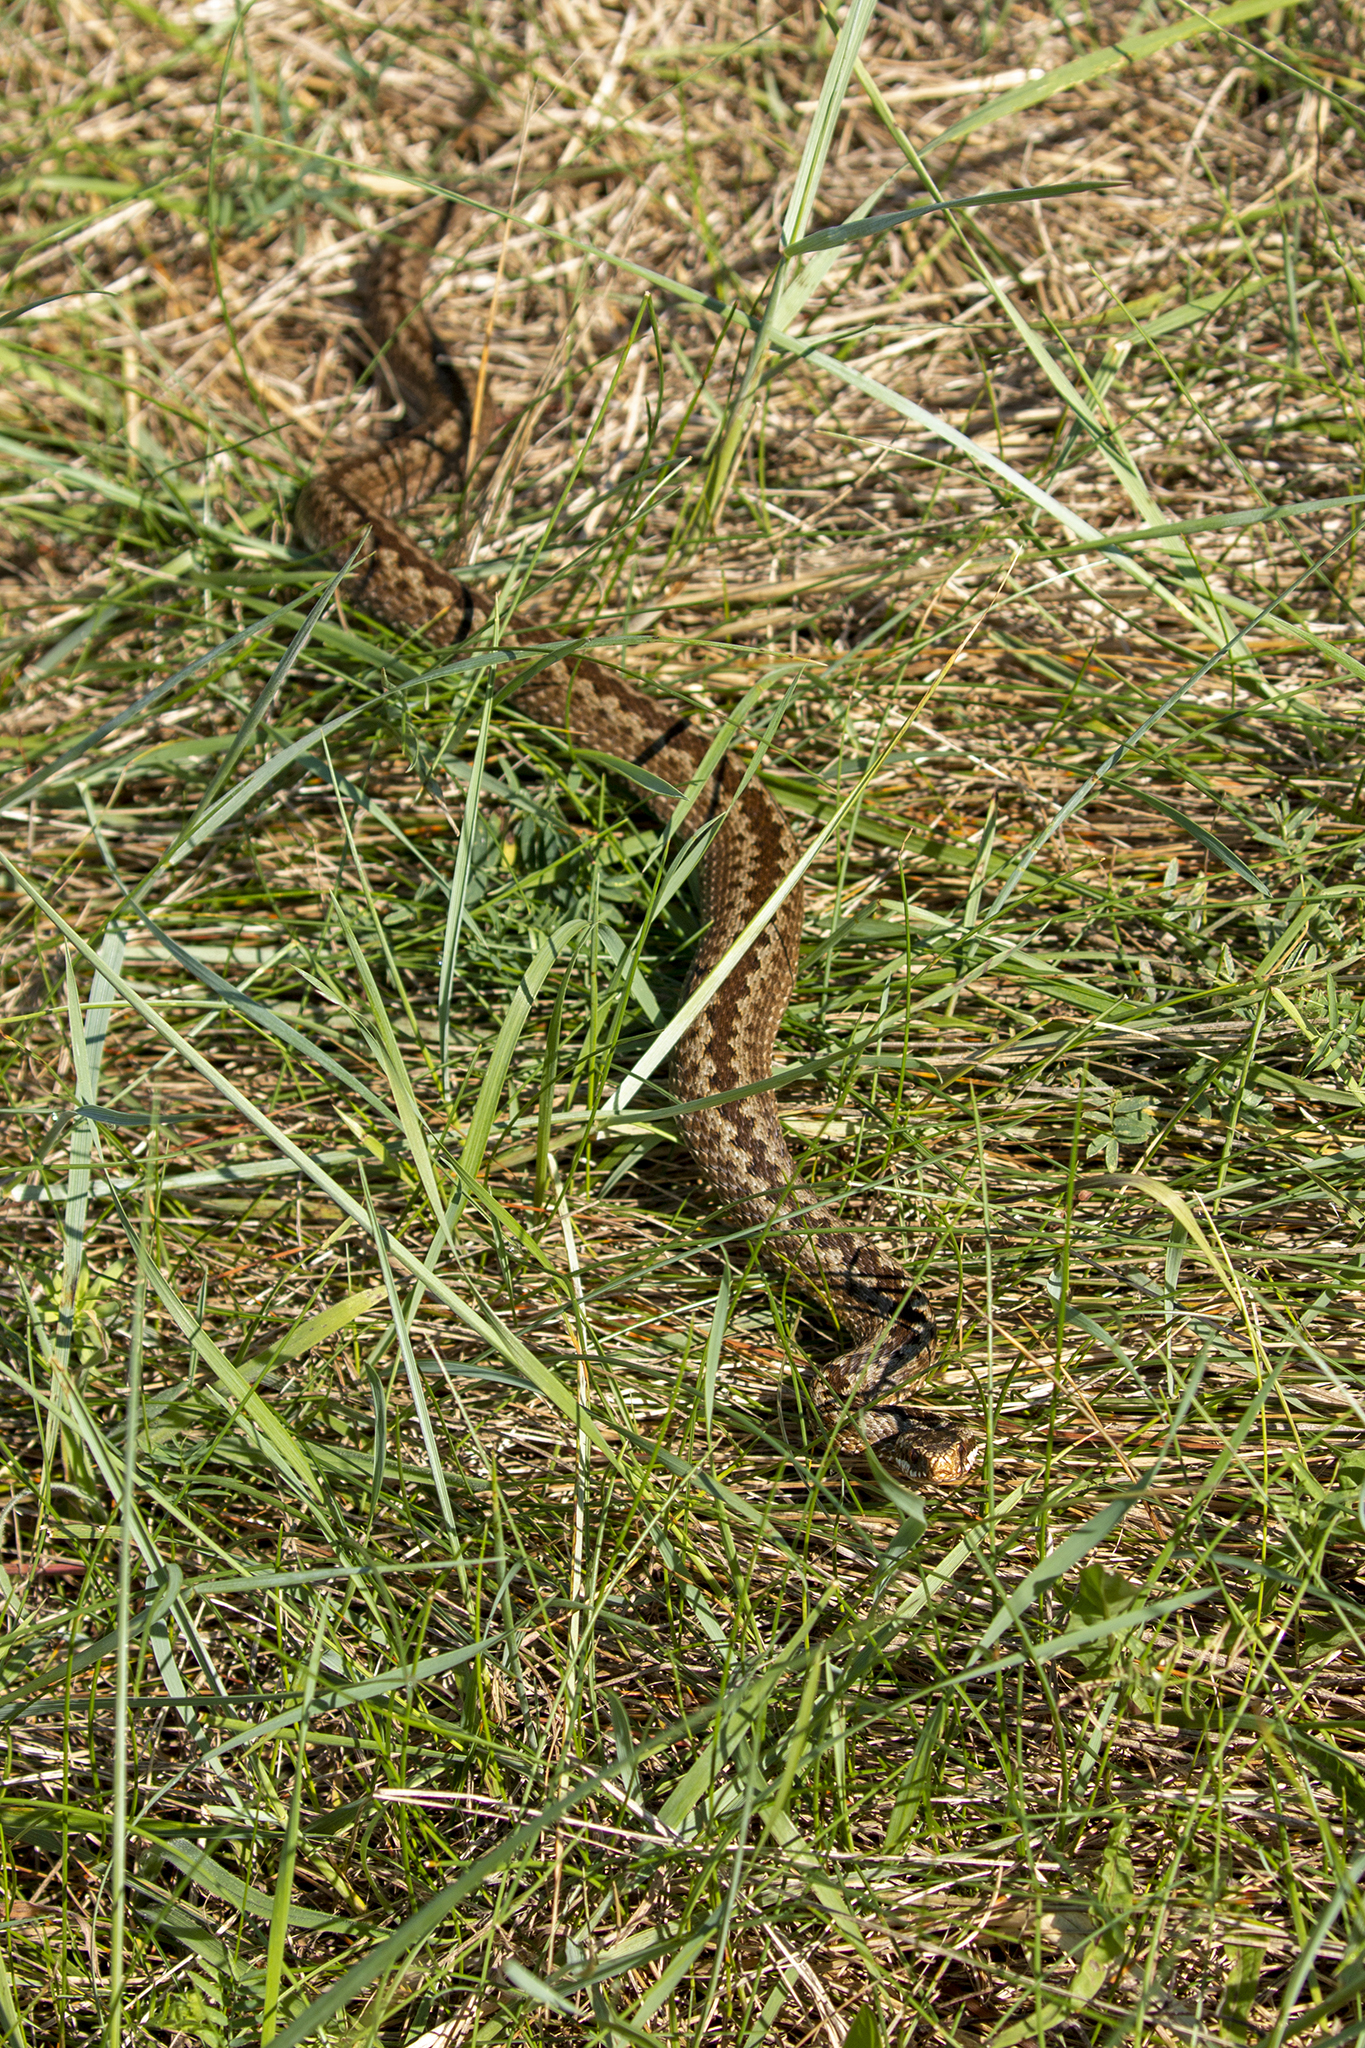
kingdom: Animalia
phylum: Chordata
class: Squamata
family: Viperidae
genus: Vipera
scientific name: Vipera berus
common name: Adder
